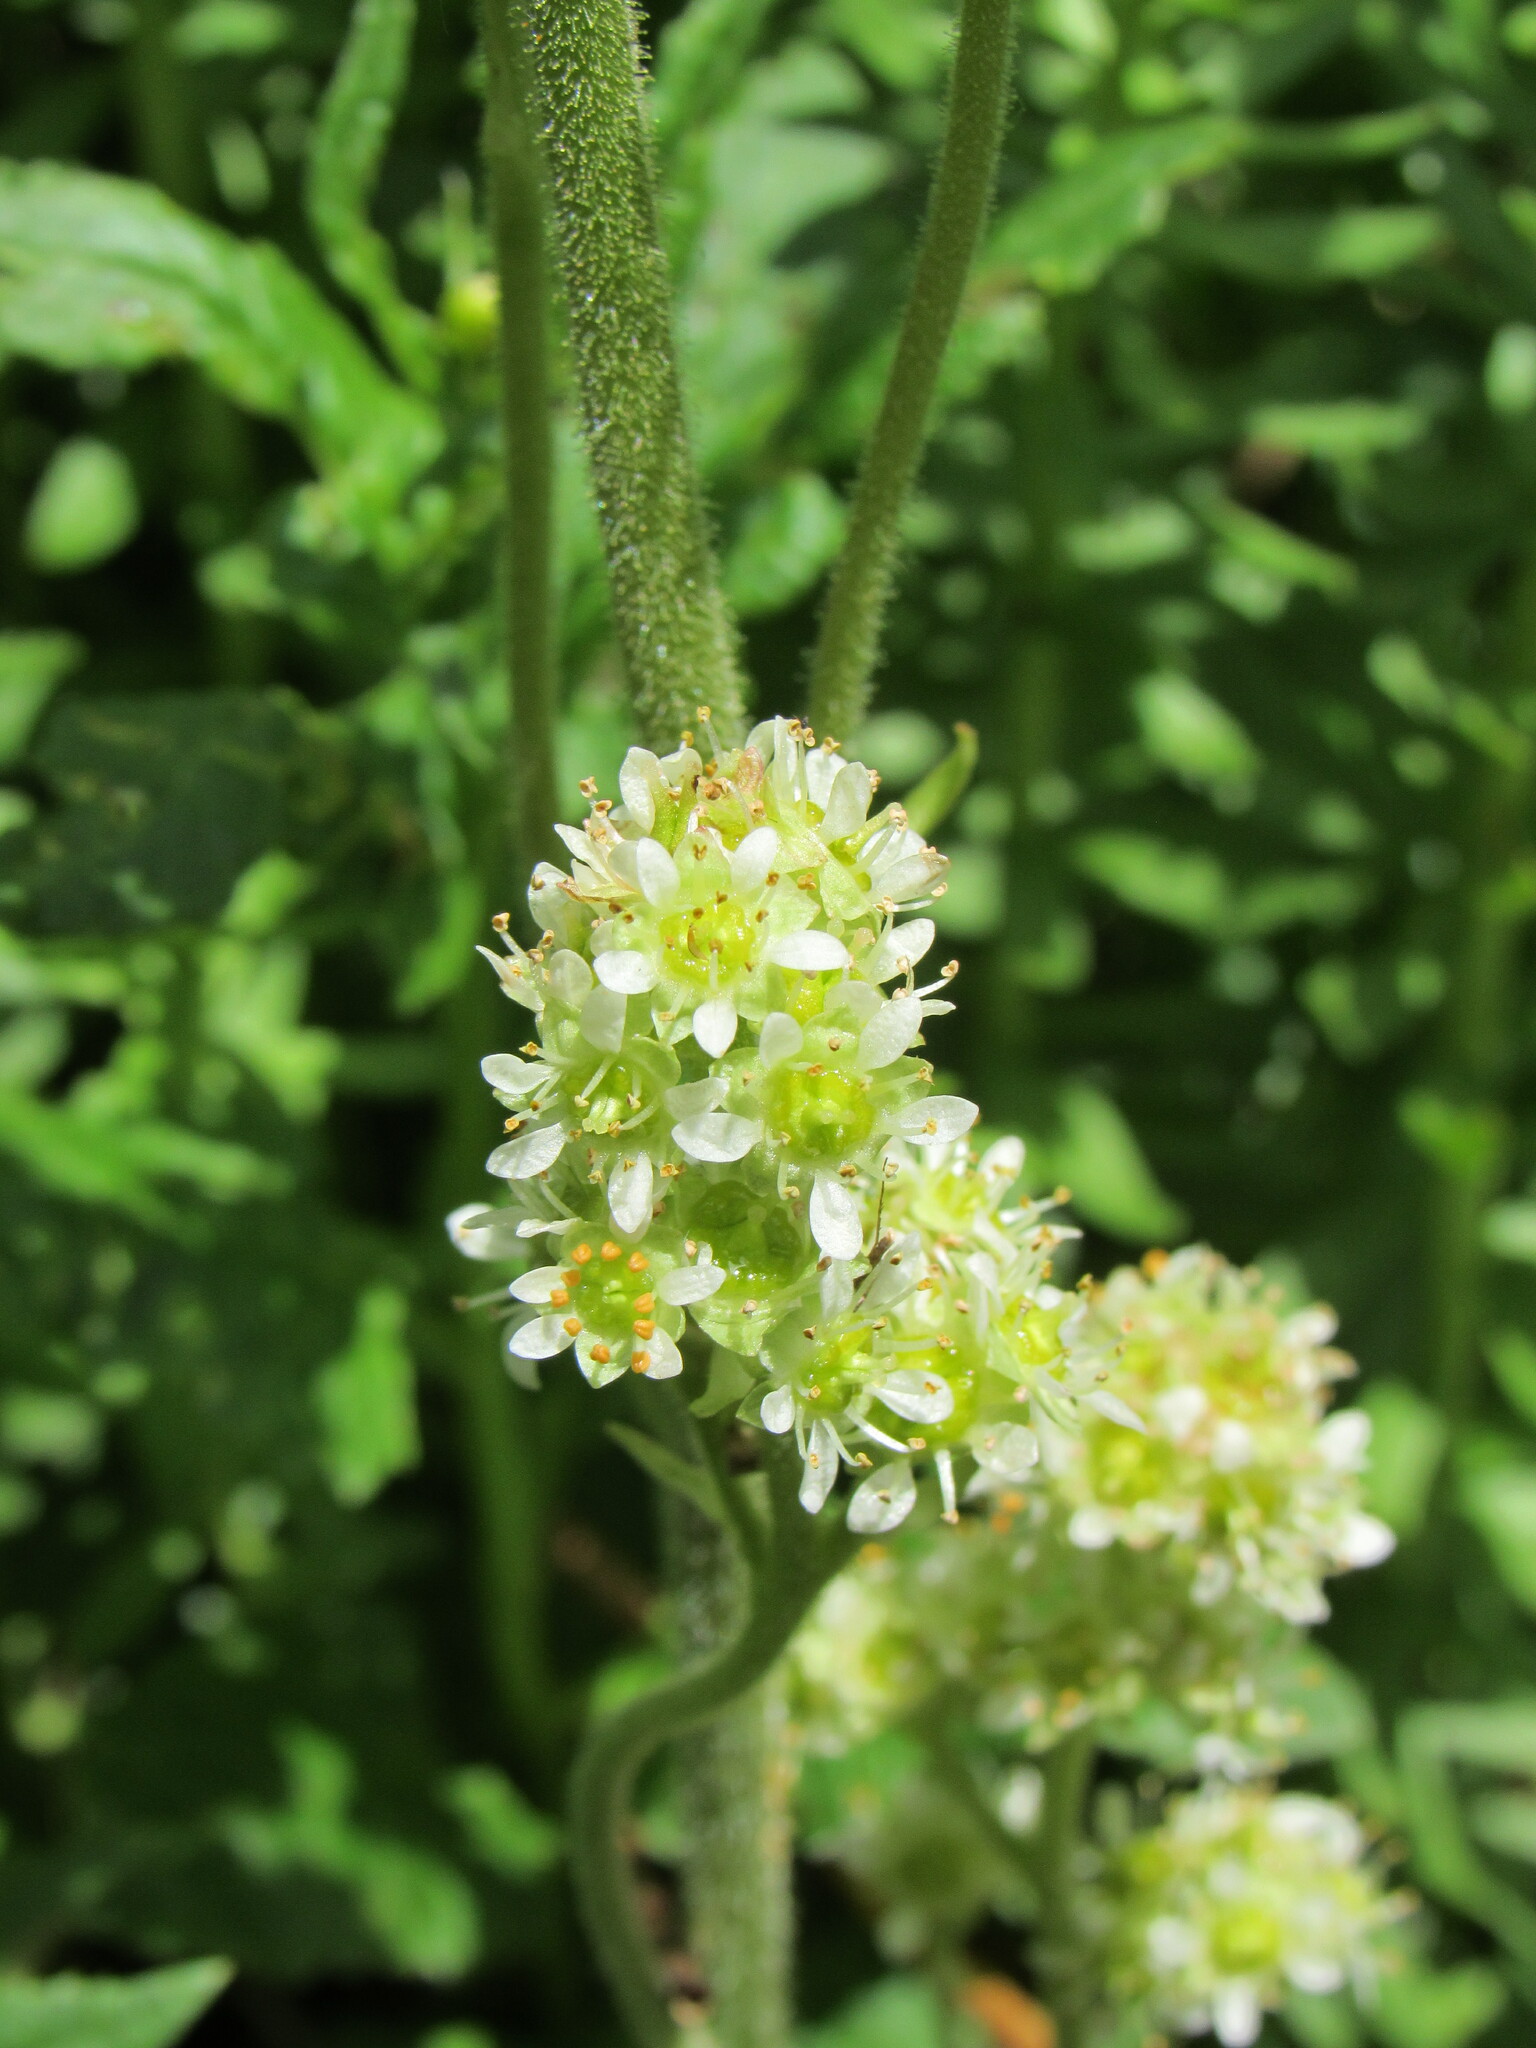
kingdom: Plantae
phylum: Tracheophyta
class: Magnoliopsida
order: Saxifragales
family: Saxifragaceae
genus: Micranthes
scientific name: Micranthes oregana
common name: Bog saxifrage
